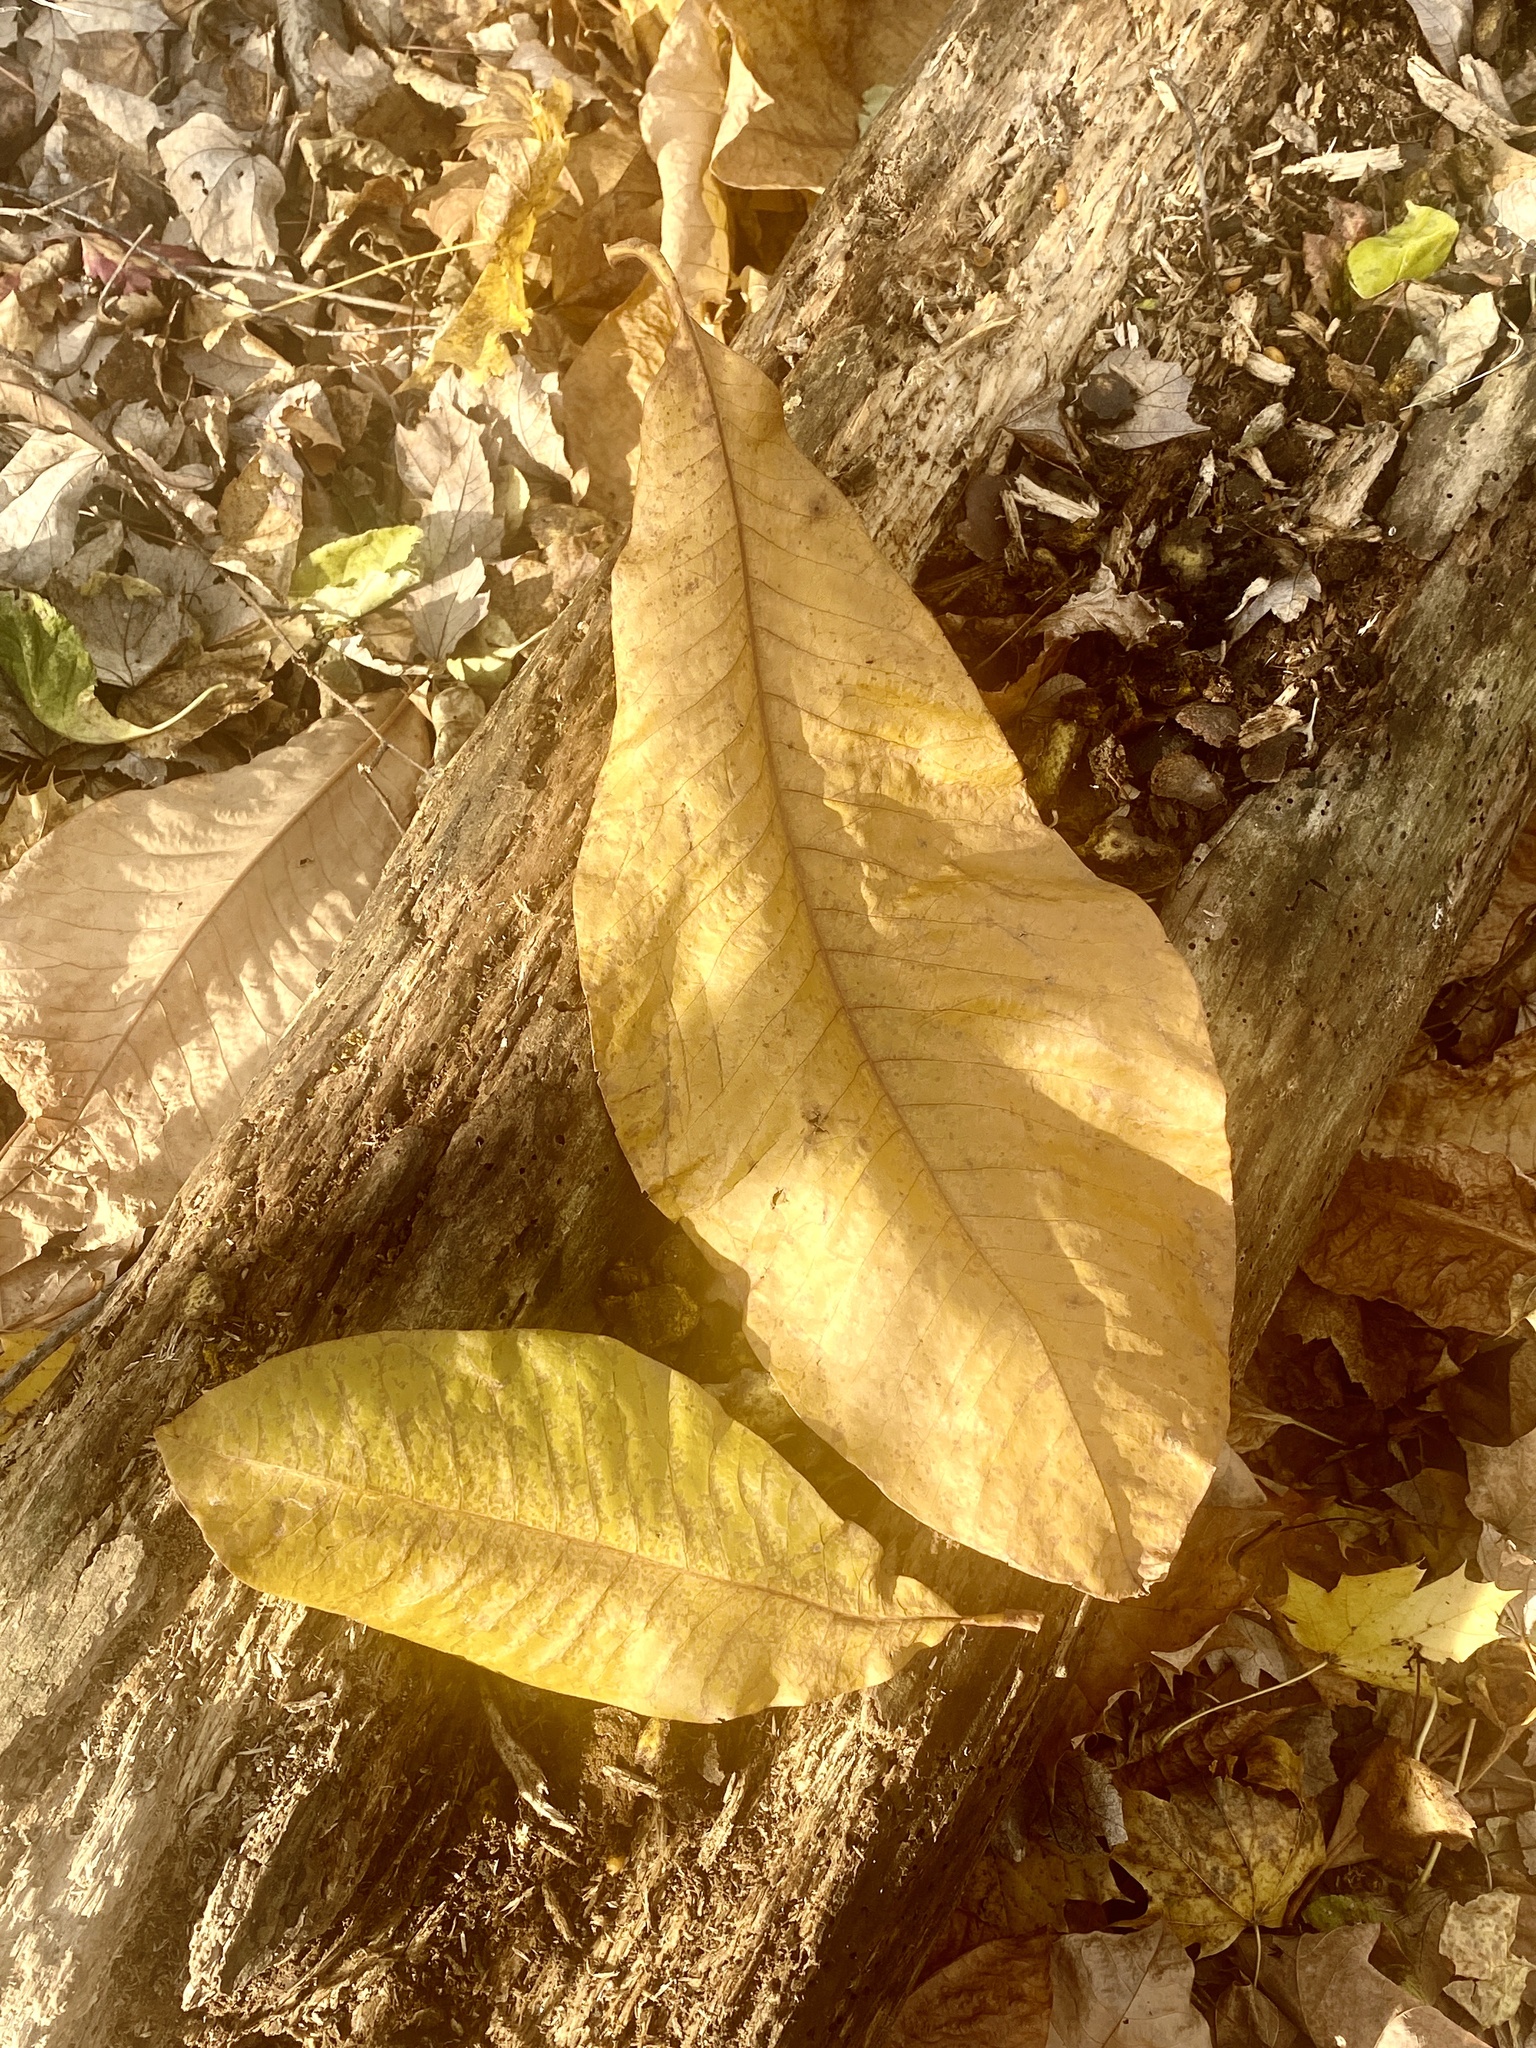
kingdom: Plantae
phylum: Tracheophyta
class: Magnoliopsida
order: Magnoliales
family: Magnoliaceae
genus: Magnolia
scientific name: Magnolia tripetala
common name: Umbrella magnolia
